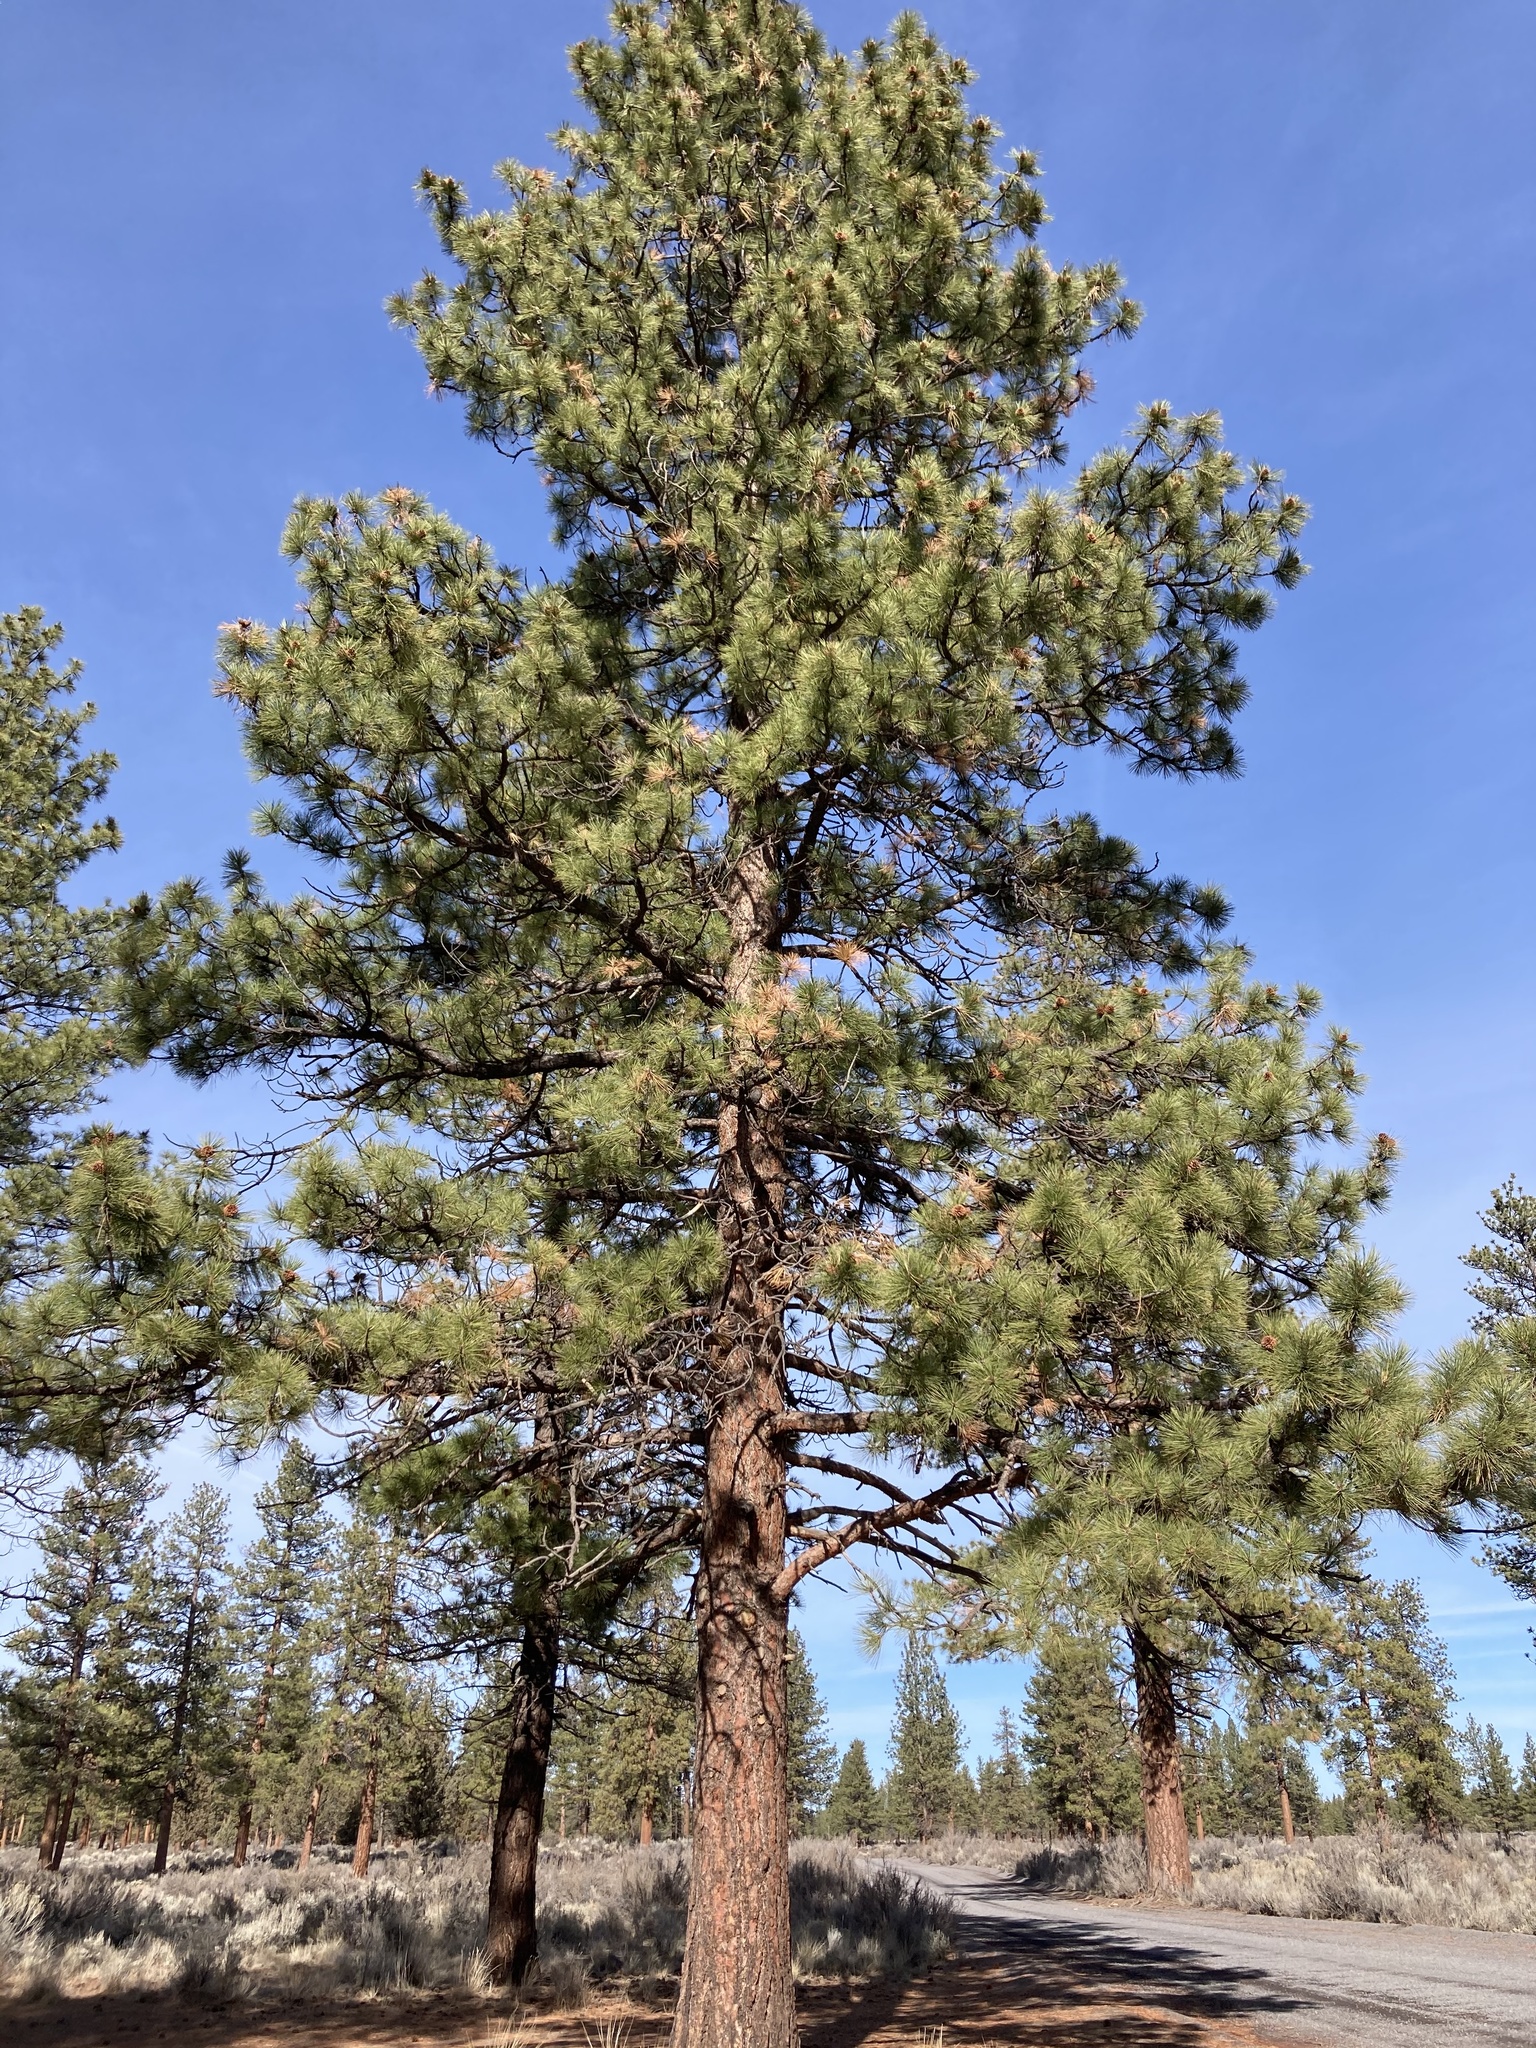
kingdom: Plantae
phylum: Tracheophyta
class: Pinopsida
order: Pinales
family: Pinaceae
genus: Pinus
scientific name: Pinus ponderosa
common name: Western yellow-pine
